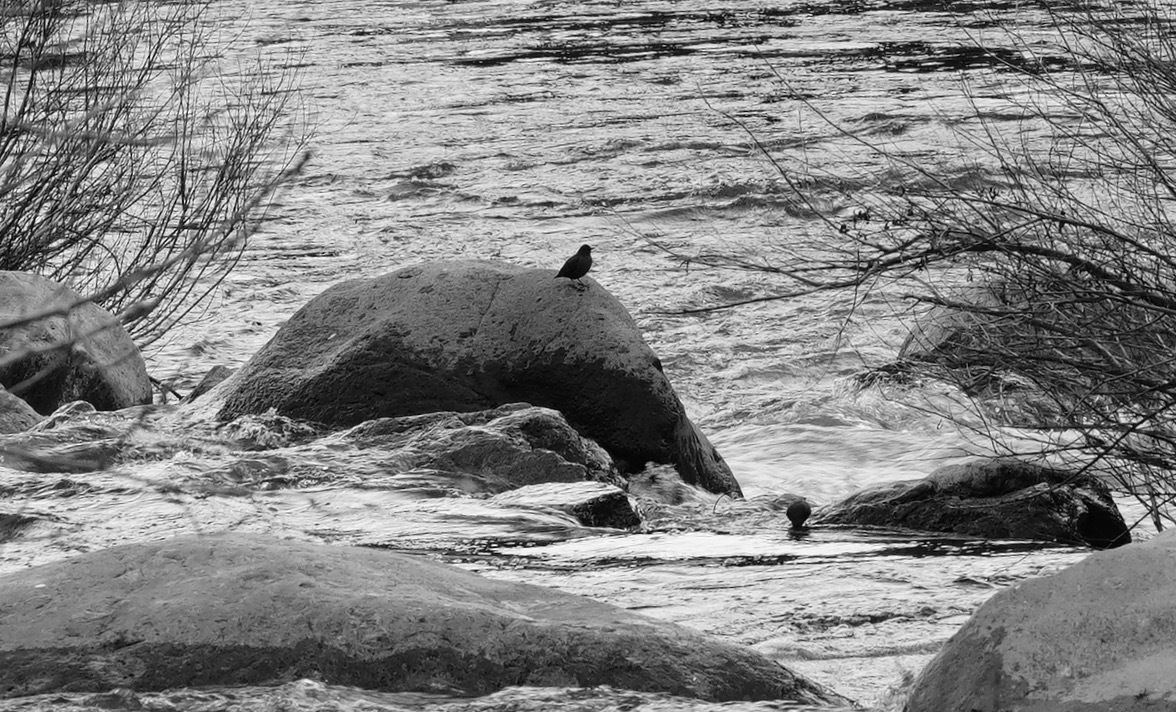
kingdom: Animalia
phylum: Chordata
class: Aves
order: Passeriformes
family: Cinclidae
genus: Cinclus
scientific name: Cinclus mexicanus
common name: American dipper
